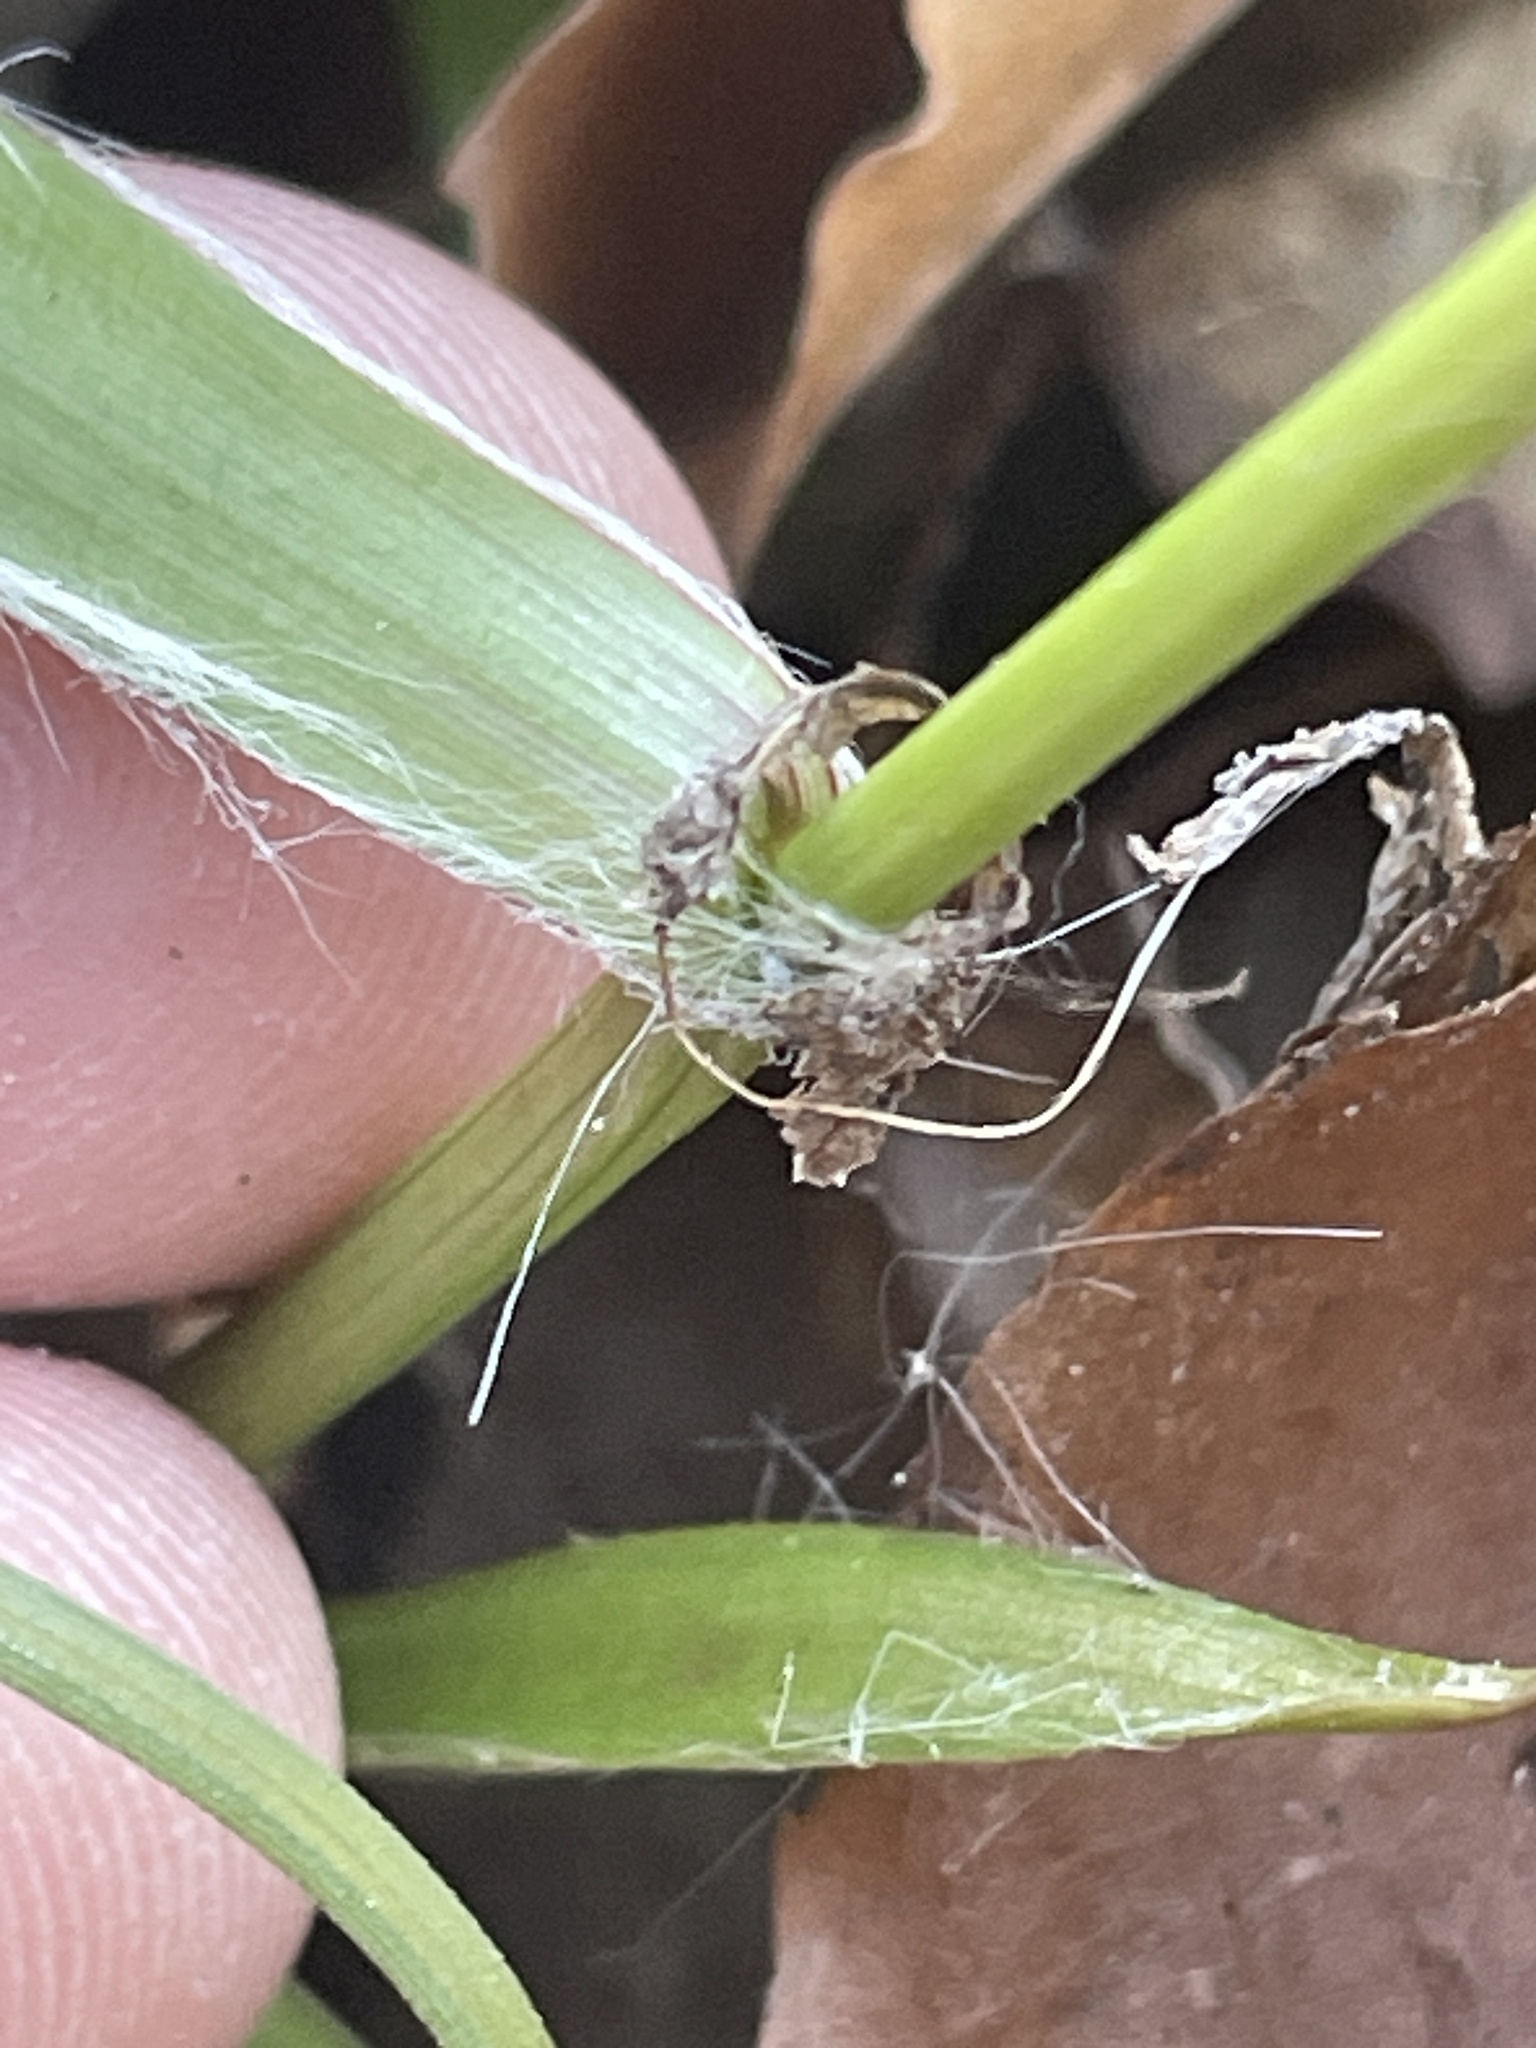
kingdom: Plantae
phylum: Tracheophyta
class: Liliopsida
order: Poales
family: Juncaceae
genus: Luzula
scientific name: Luzula acuminata
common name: Hairy woodrush
